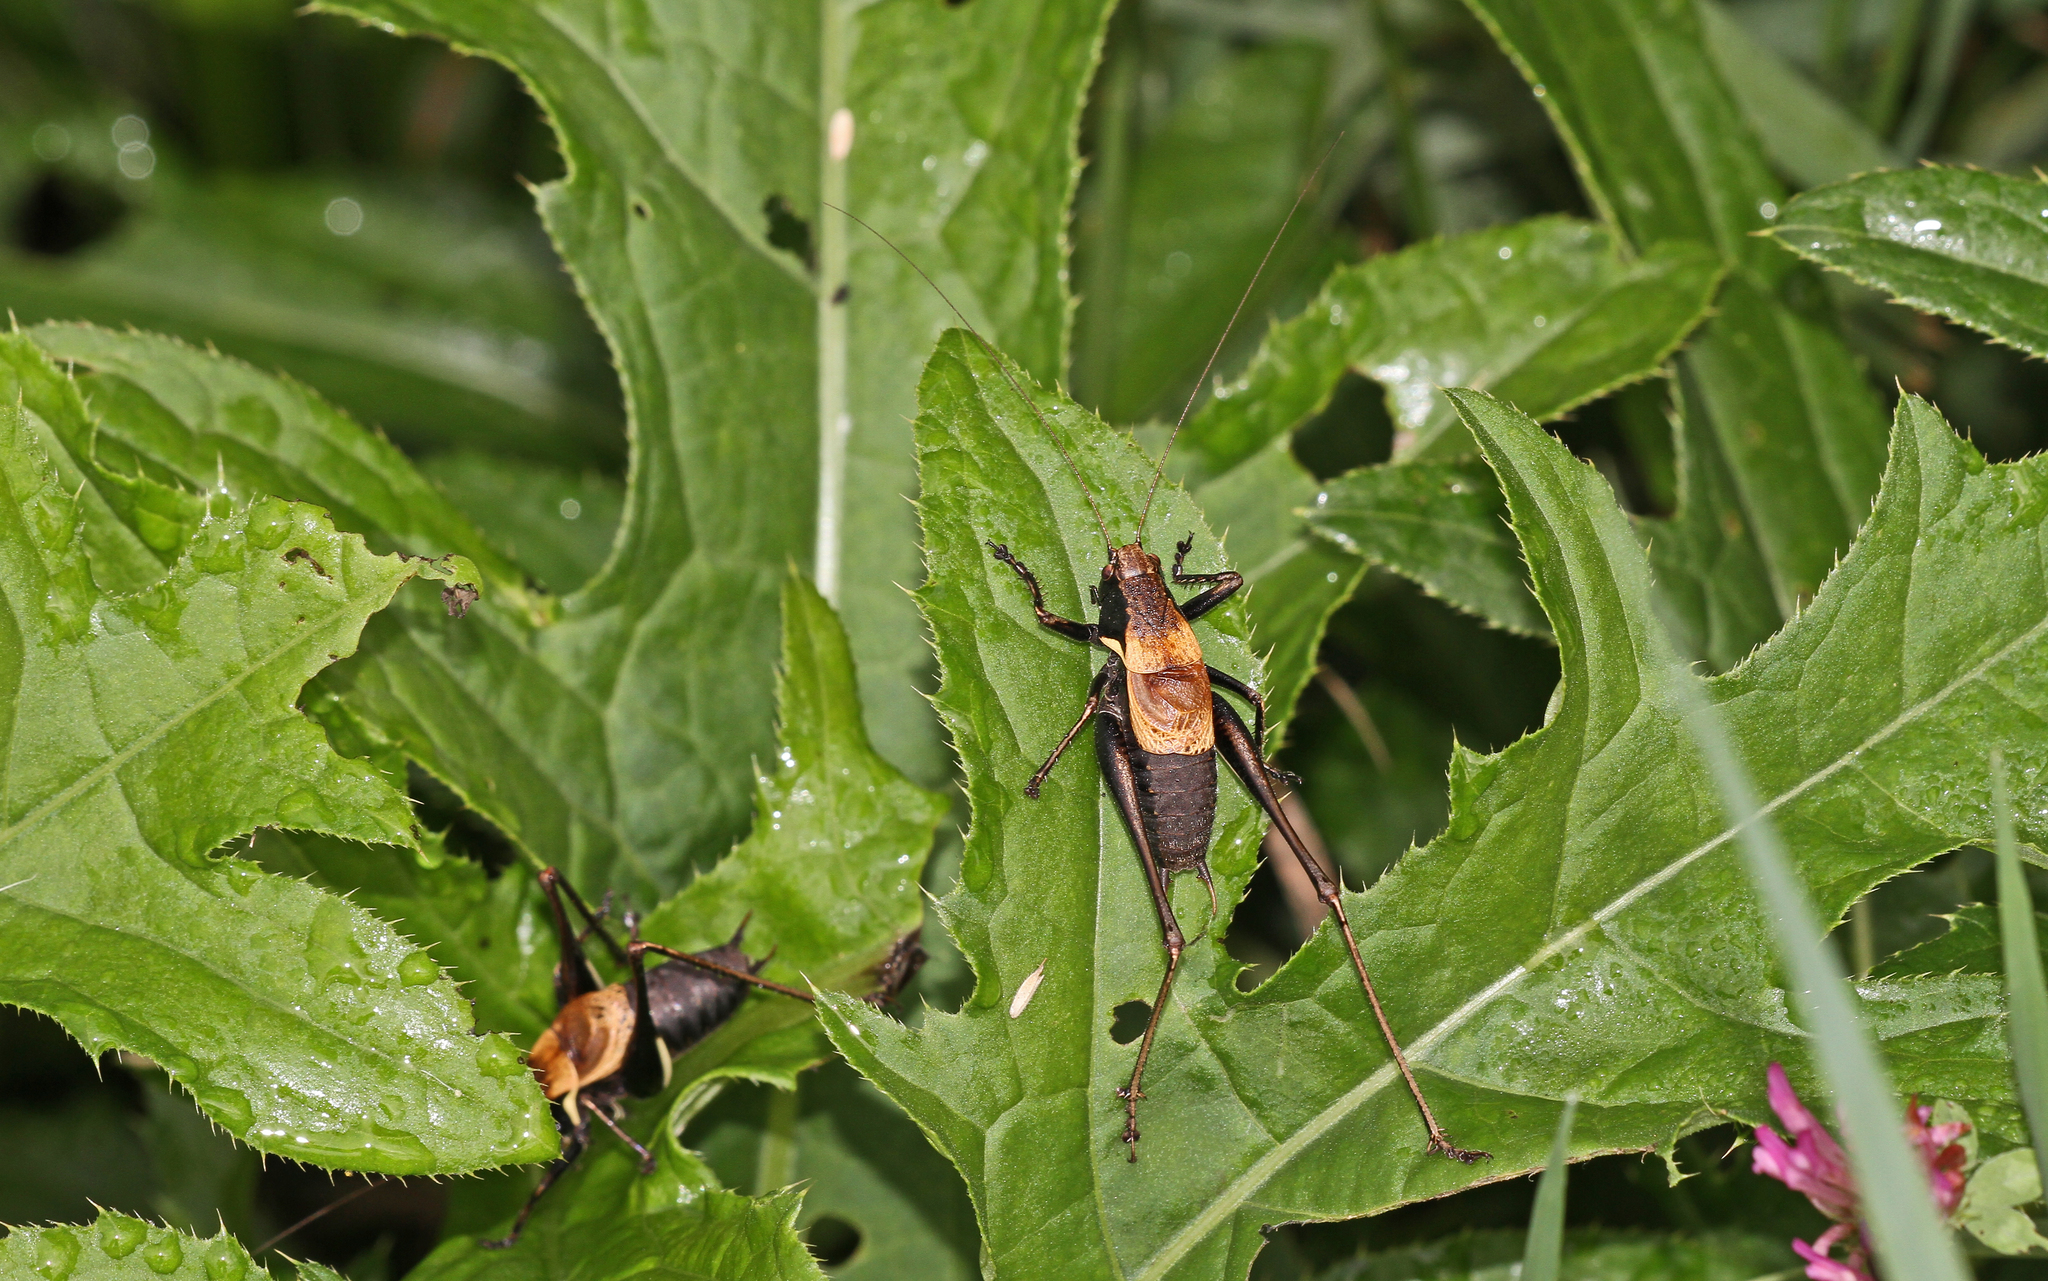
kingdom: Animalia
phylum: Arthropoda
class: Insecta
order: Orthoptera
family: Tettigoniidae
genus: Pholidoptera
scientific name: Pholidoptera aptera
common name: Alpine dark bush-cricket
